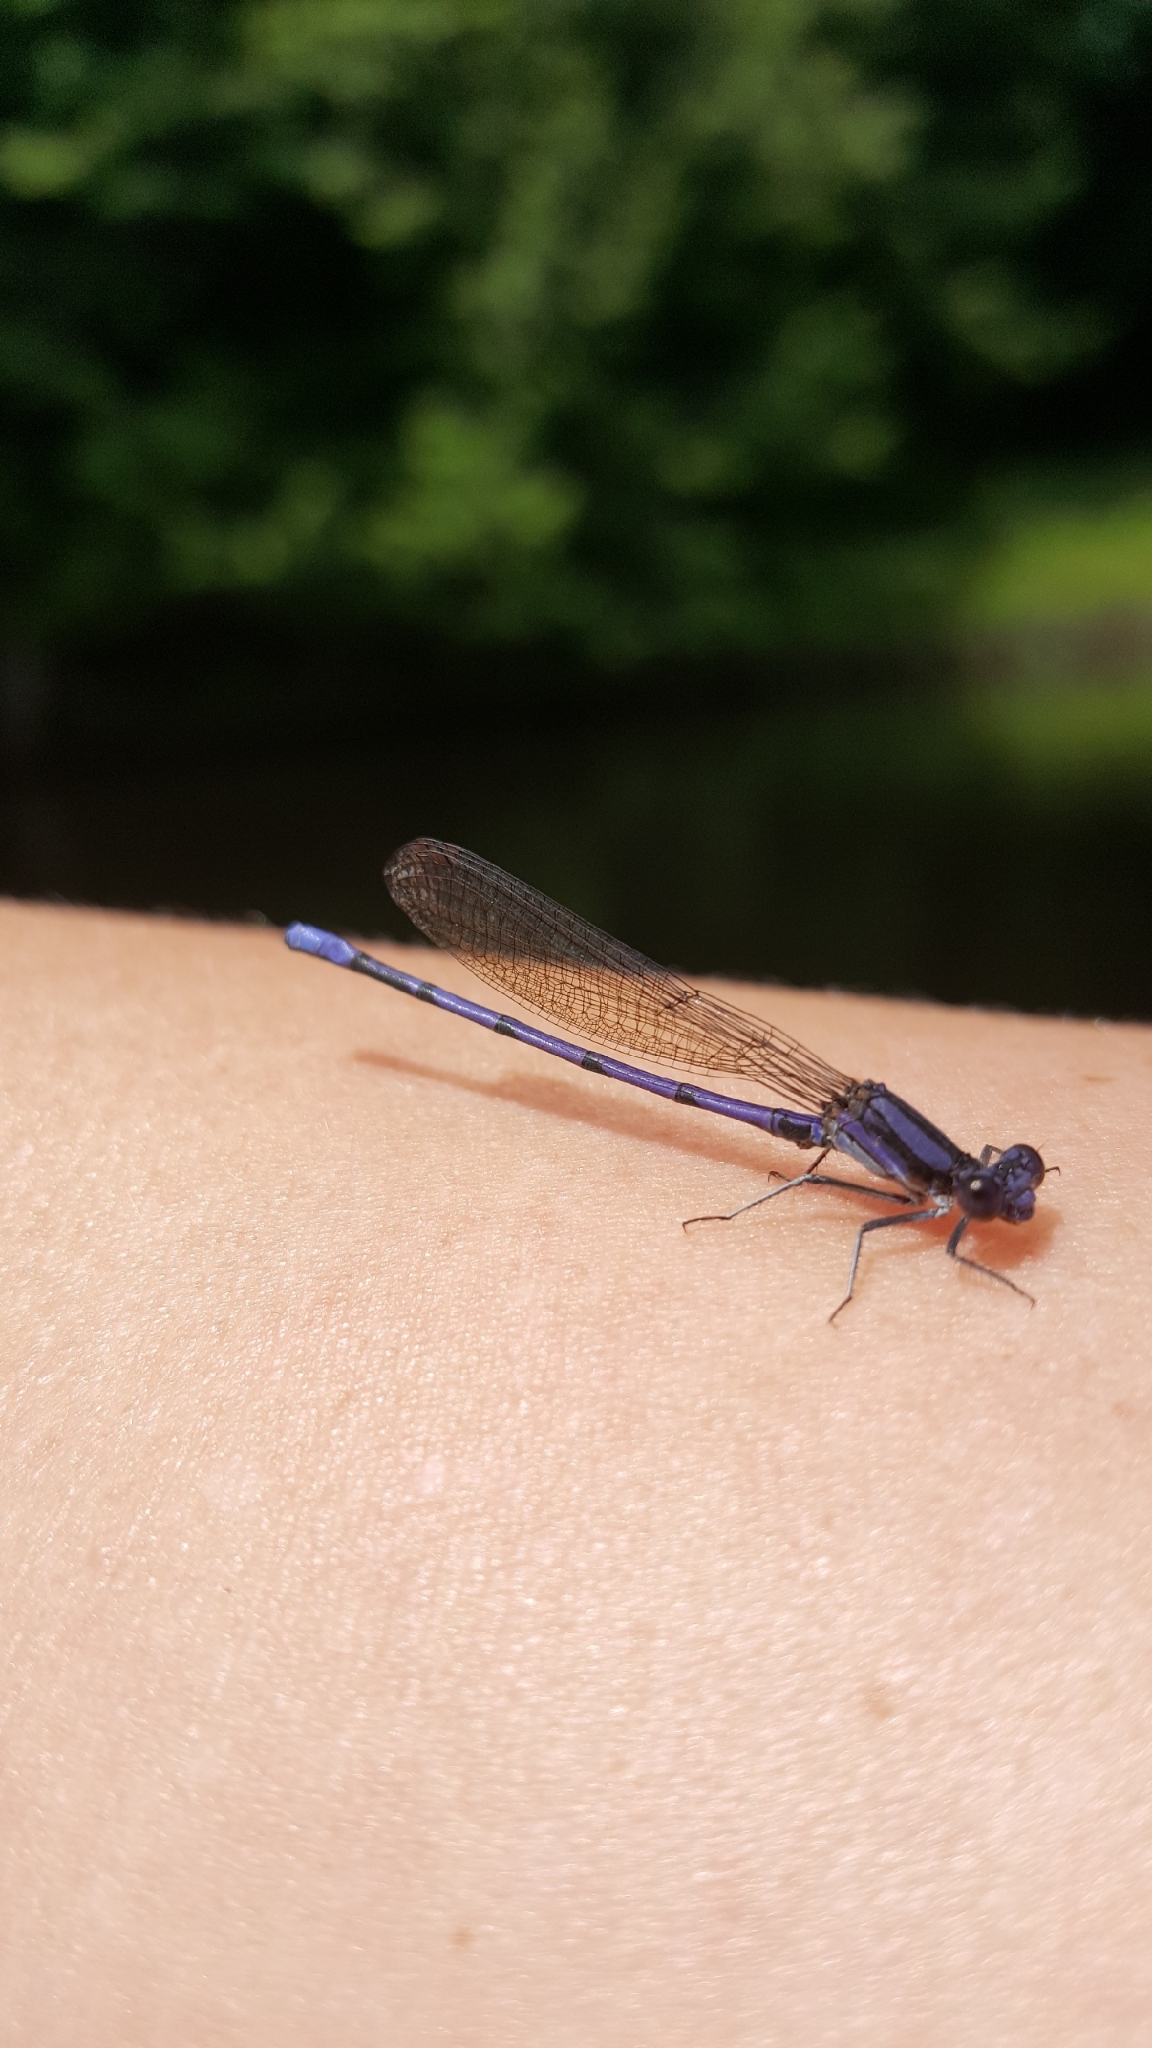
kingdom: Animalia
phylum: Arthropoda
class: Insecta
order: Odonata
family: Coenagrionidae
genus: Argia
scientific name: Argia fumipennis
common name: Variable dancer
